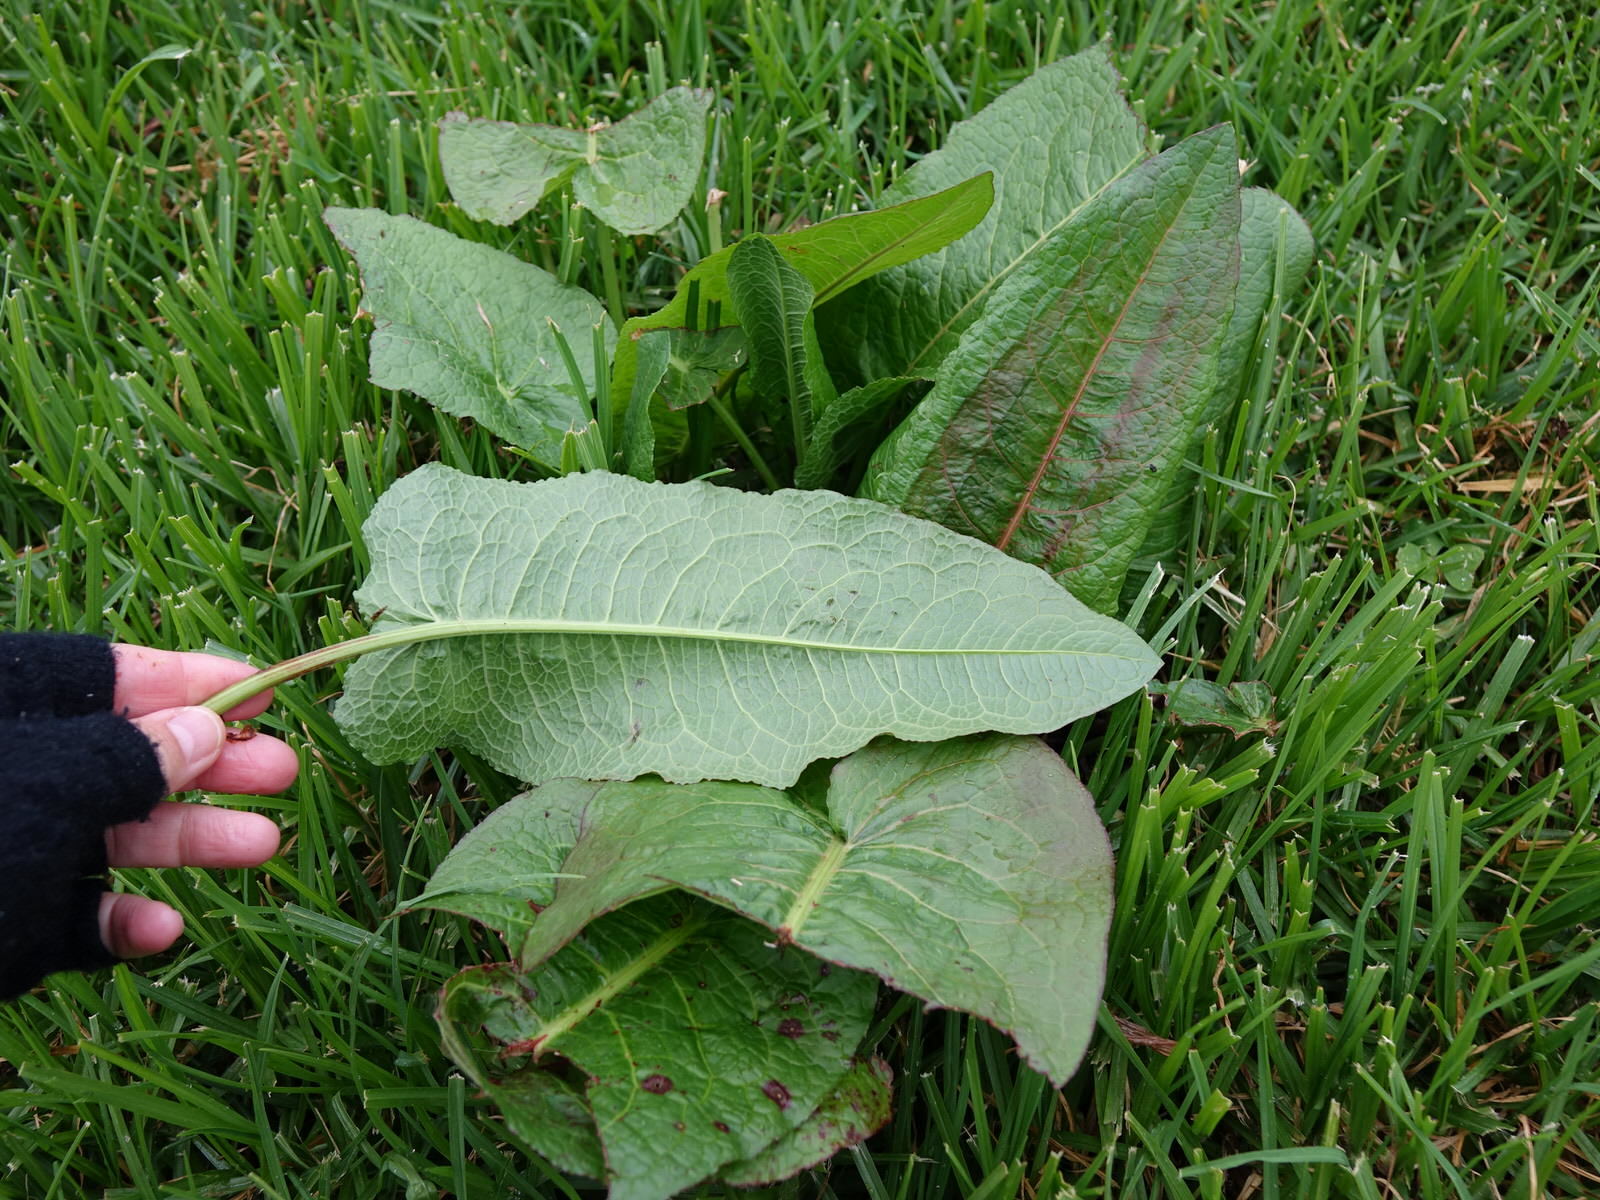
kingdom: Plantae
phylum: Tracheophyta
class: Magnoliopsida
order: Caryophyllales
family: Polygonaceae
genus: Rumex
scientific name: Rumex obtusifolius
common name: Bitter dock
